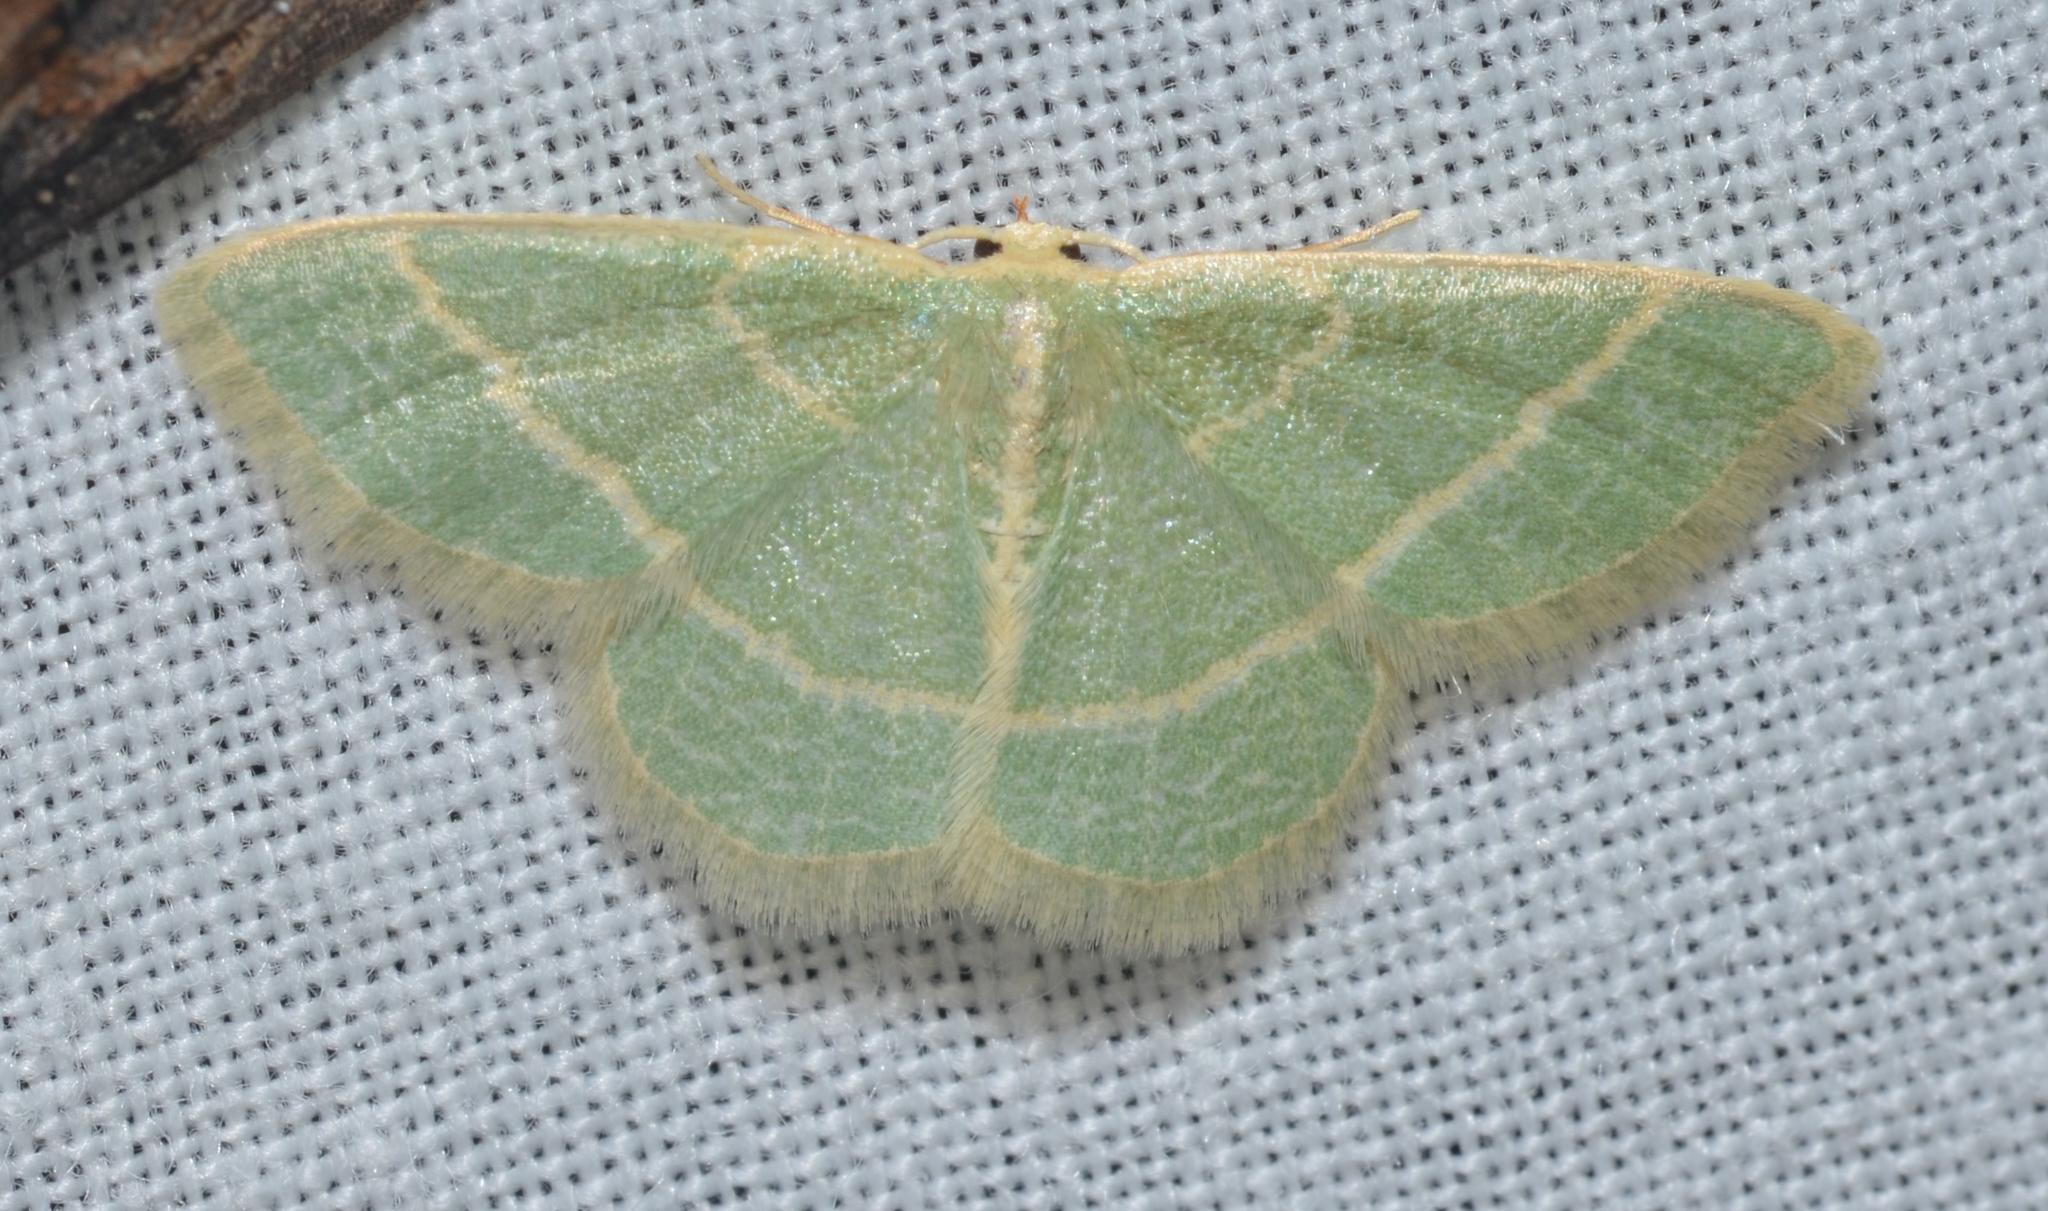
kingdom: Animalia
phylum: Arthropoda
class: Insecta
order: Lepidoptera
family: Geometridae
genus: Chlorochlamys
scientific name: Chlorochlamys chloroleucaria
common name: Blackberry looper
